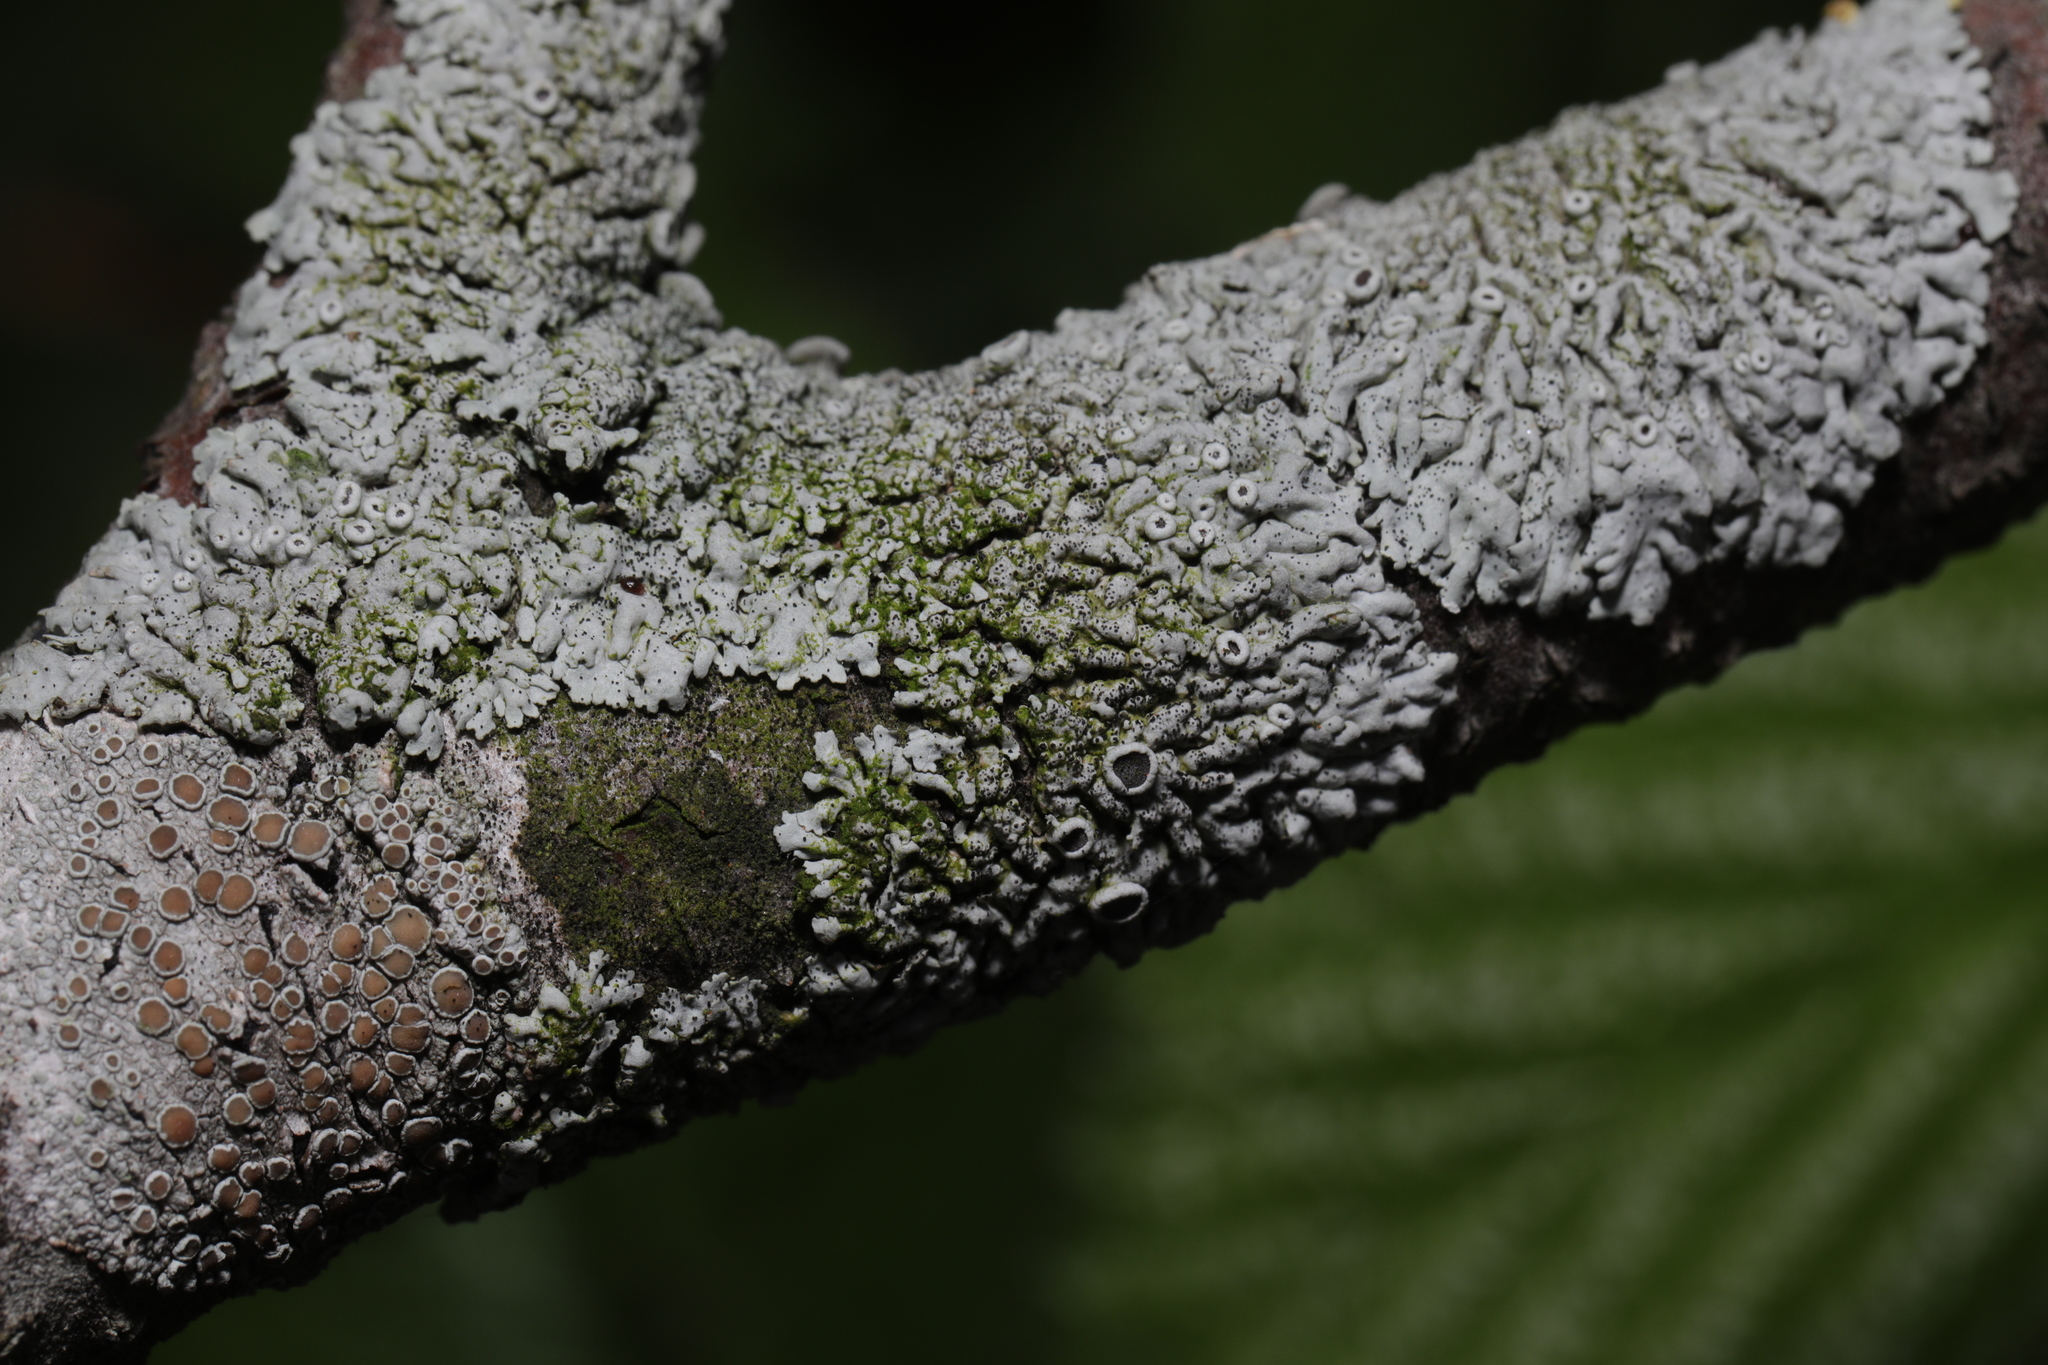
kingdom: Fungi
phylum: Ascomycota
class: Lecanoromycetes
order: Caliciales
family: Physciaceae
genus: Physcia
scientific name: Physcia stellaris
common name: Star rosette lichen
